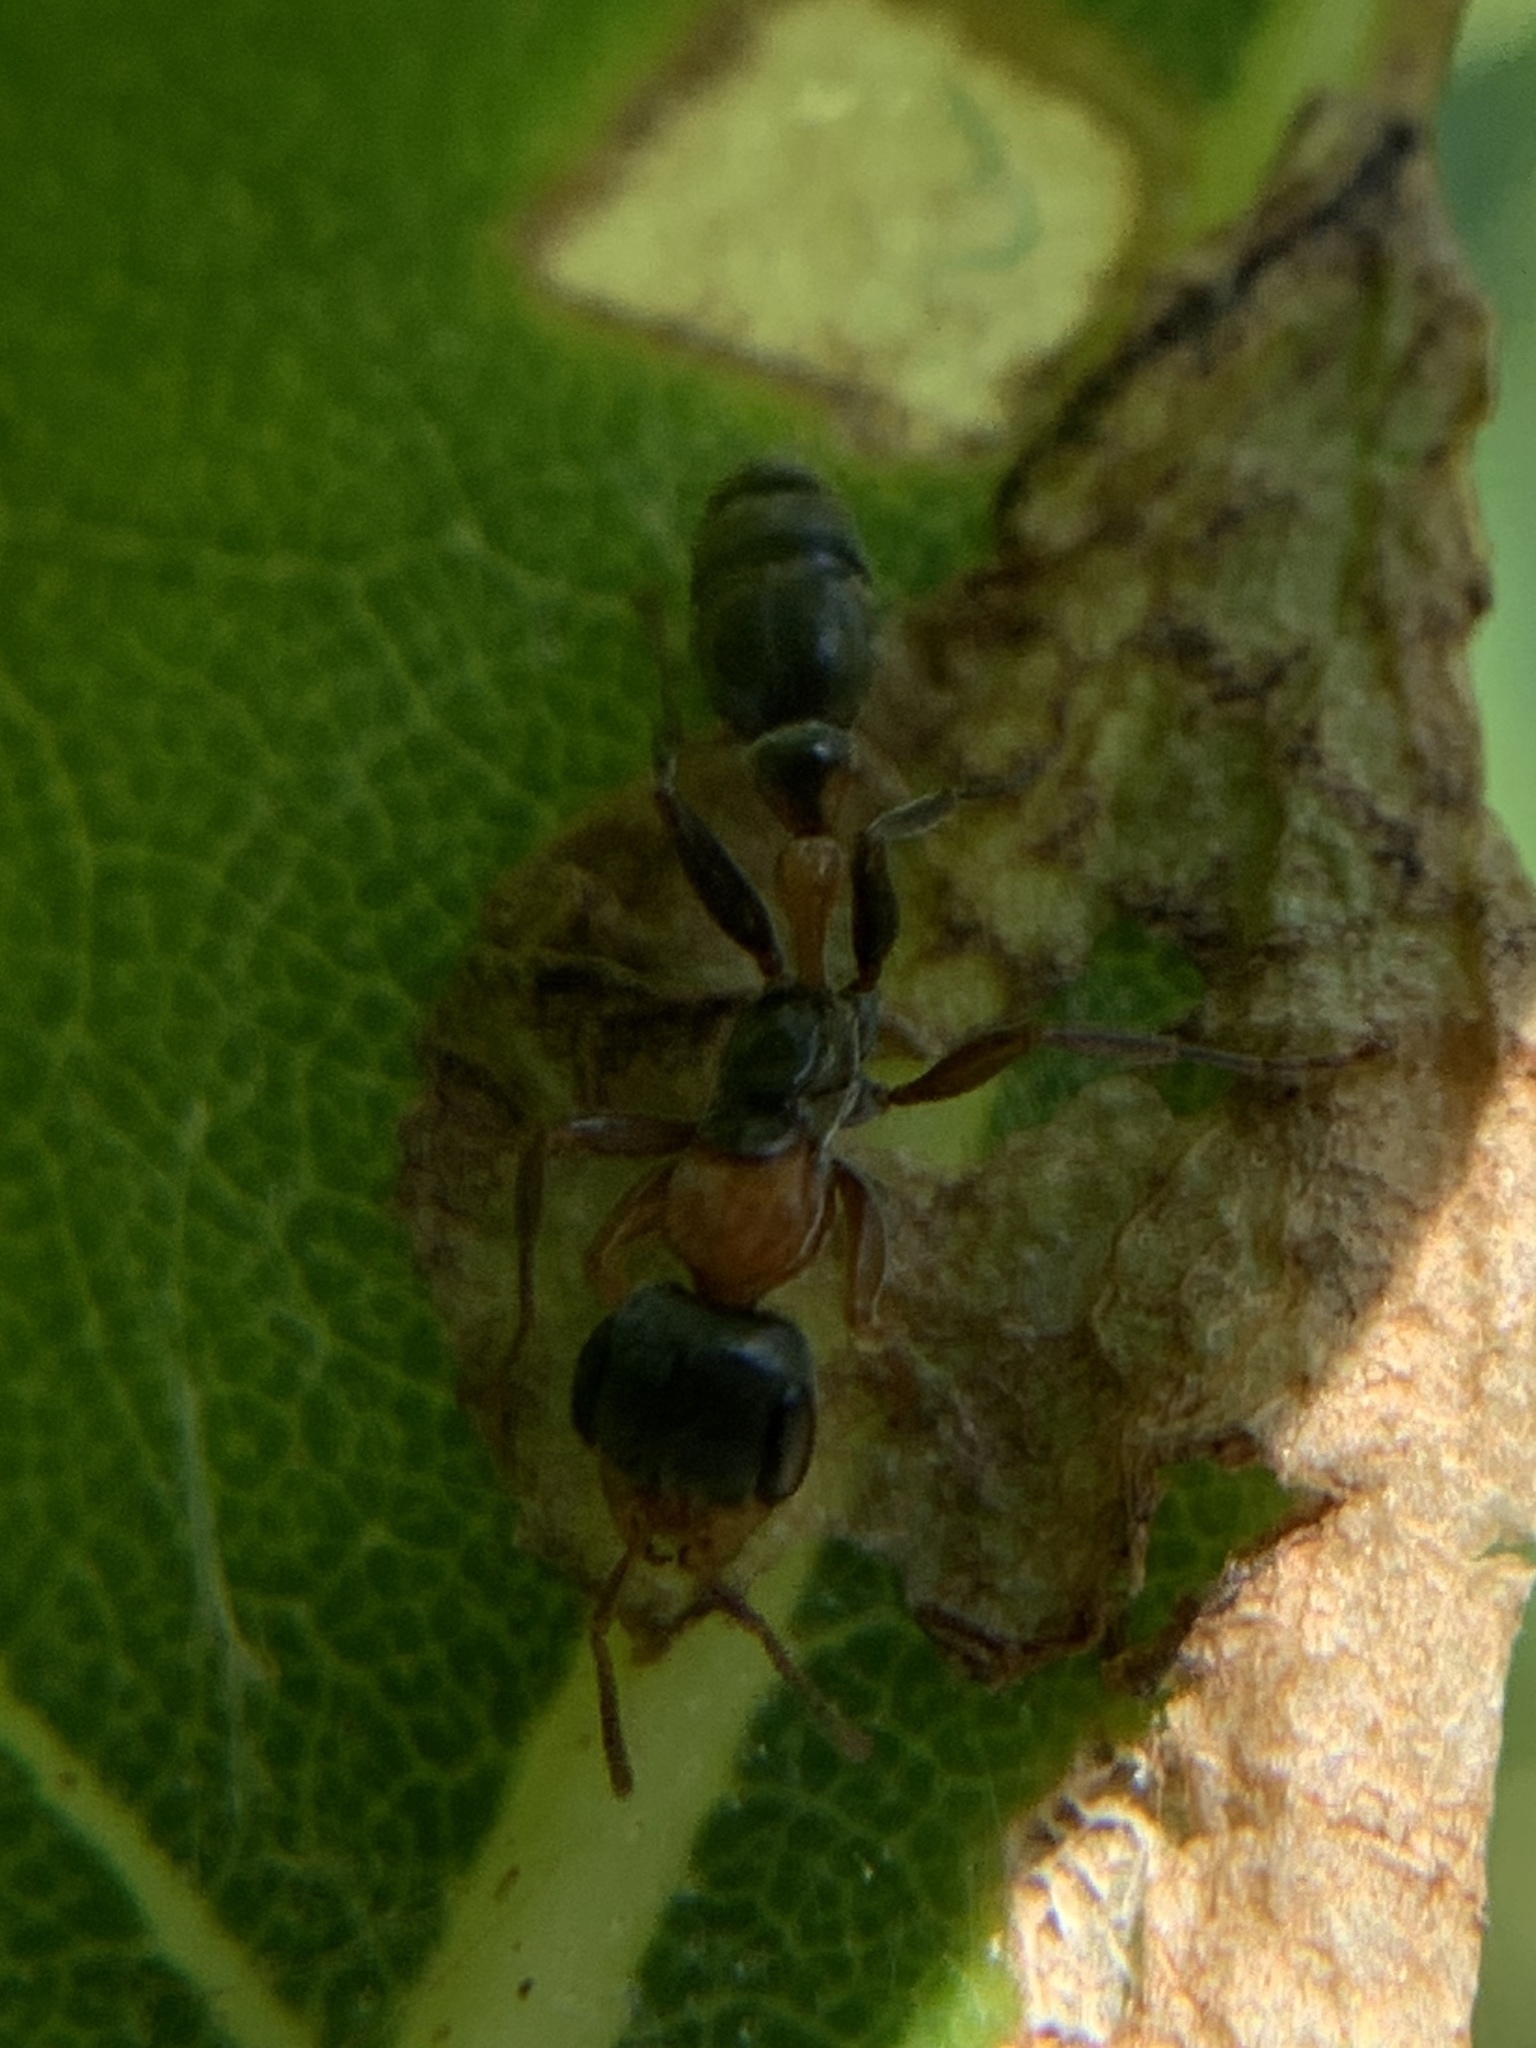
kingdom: Animalia
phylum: Arthropoda
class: Insecta
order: Hymenoptera
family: Formicidae
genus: Pseudomyrmex
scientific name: Pseudomyrmex gracilis
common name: Graceful twig ant
